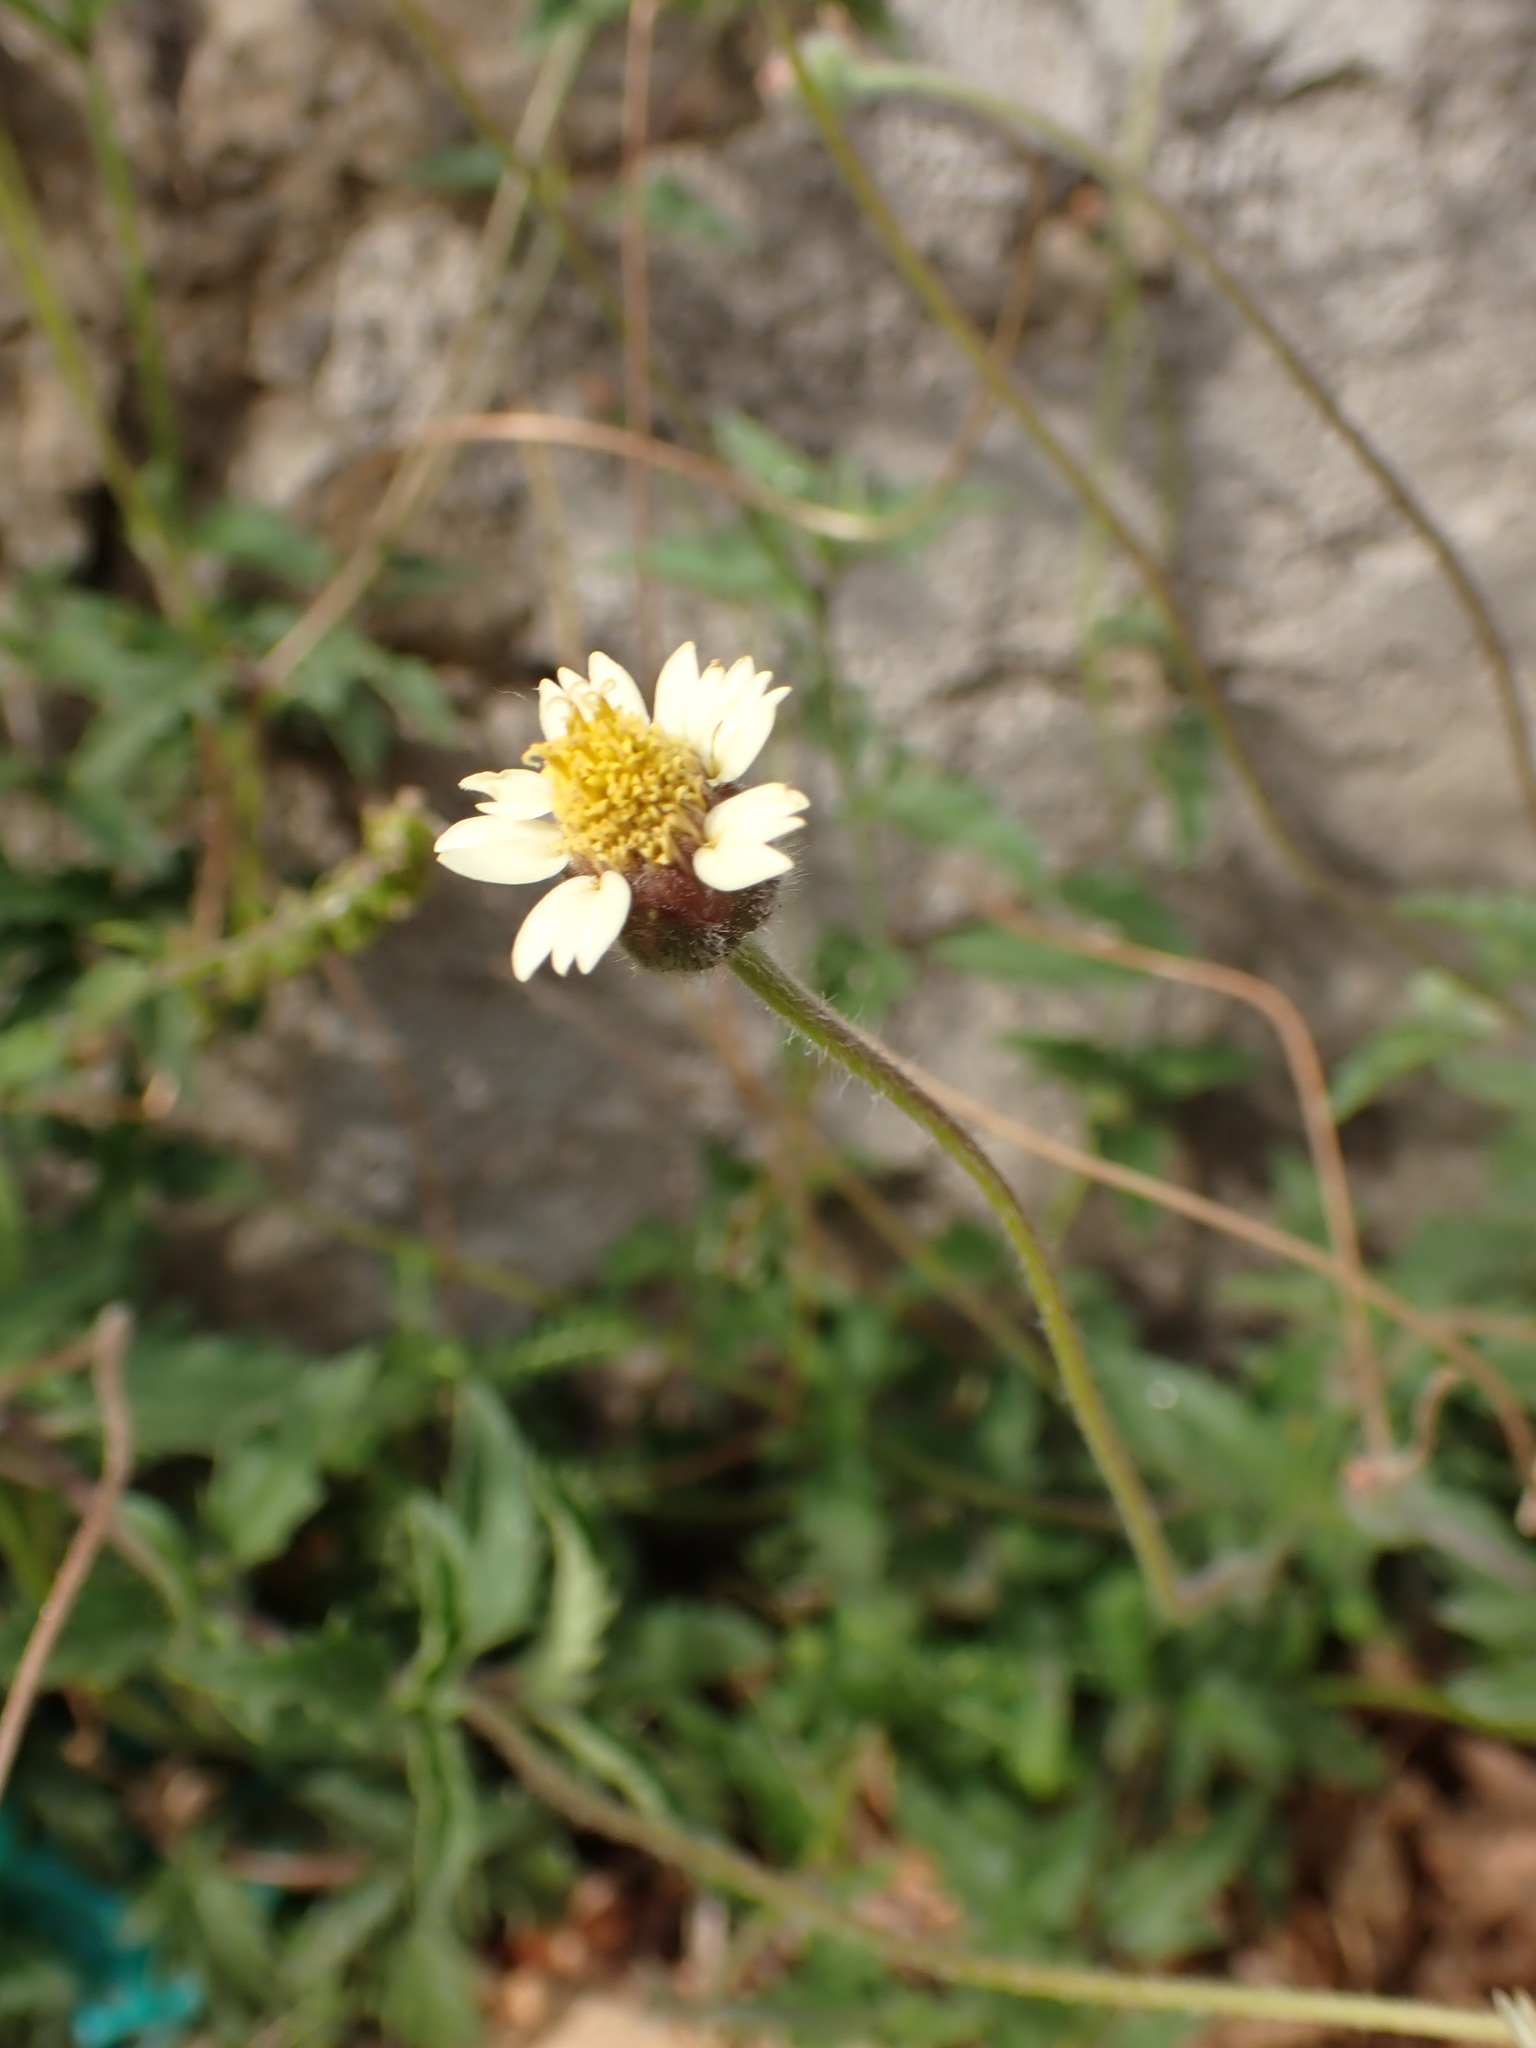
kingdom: Plantae
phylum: Tracheophyta
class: Magnoliopsida
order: Asterales
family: Asteraceae
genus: Tridax
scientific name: Tridax procumbens
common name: Coatbuttons
